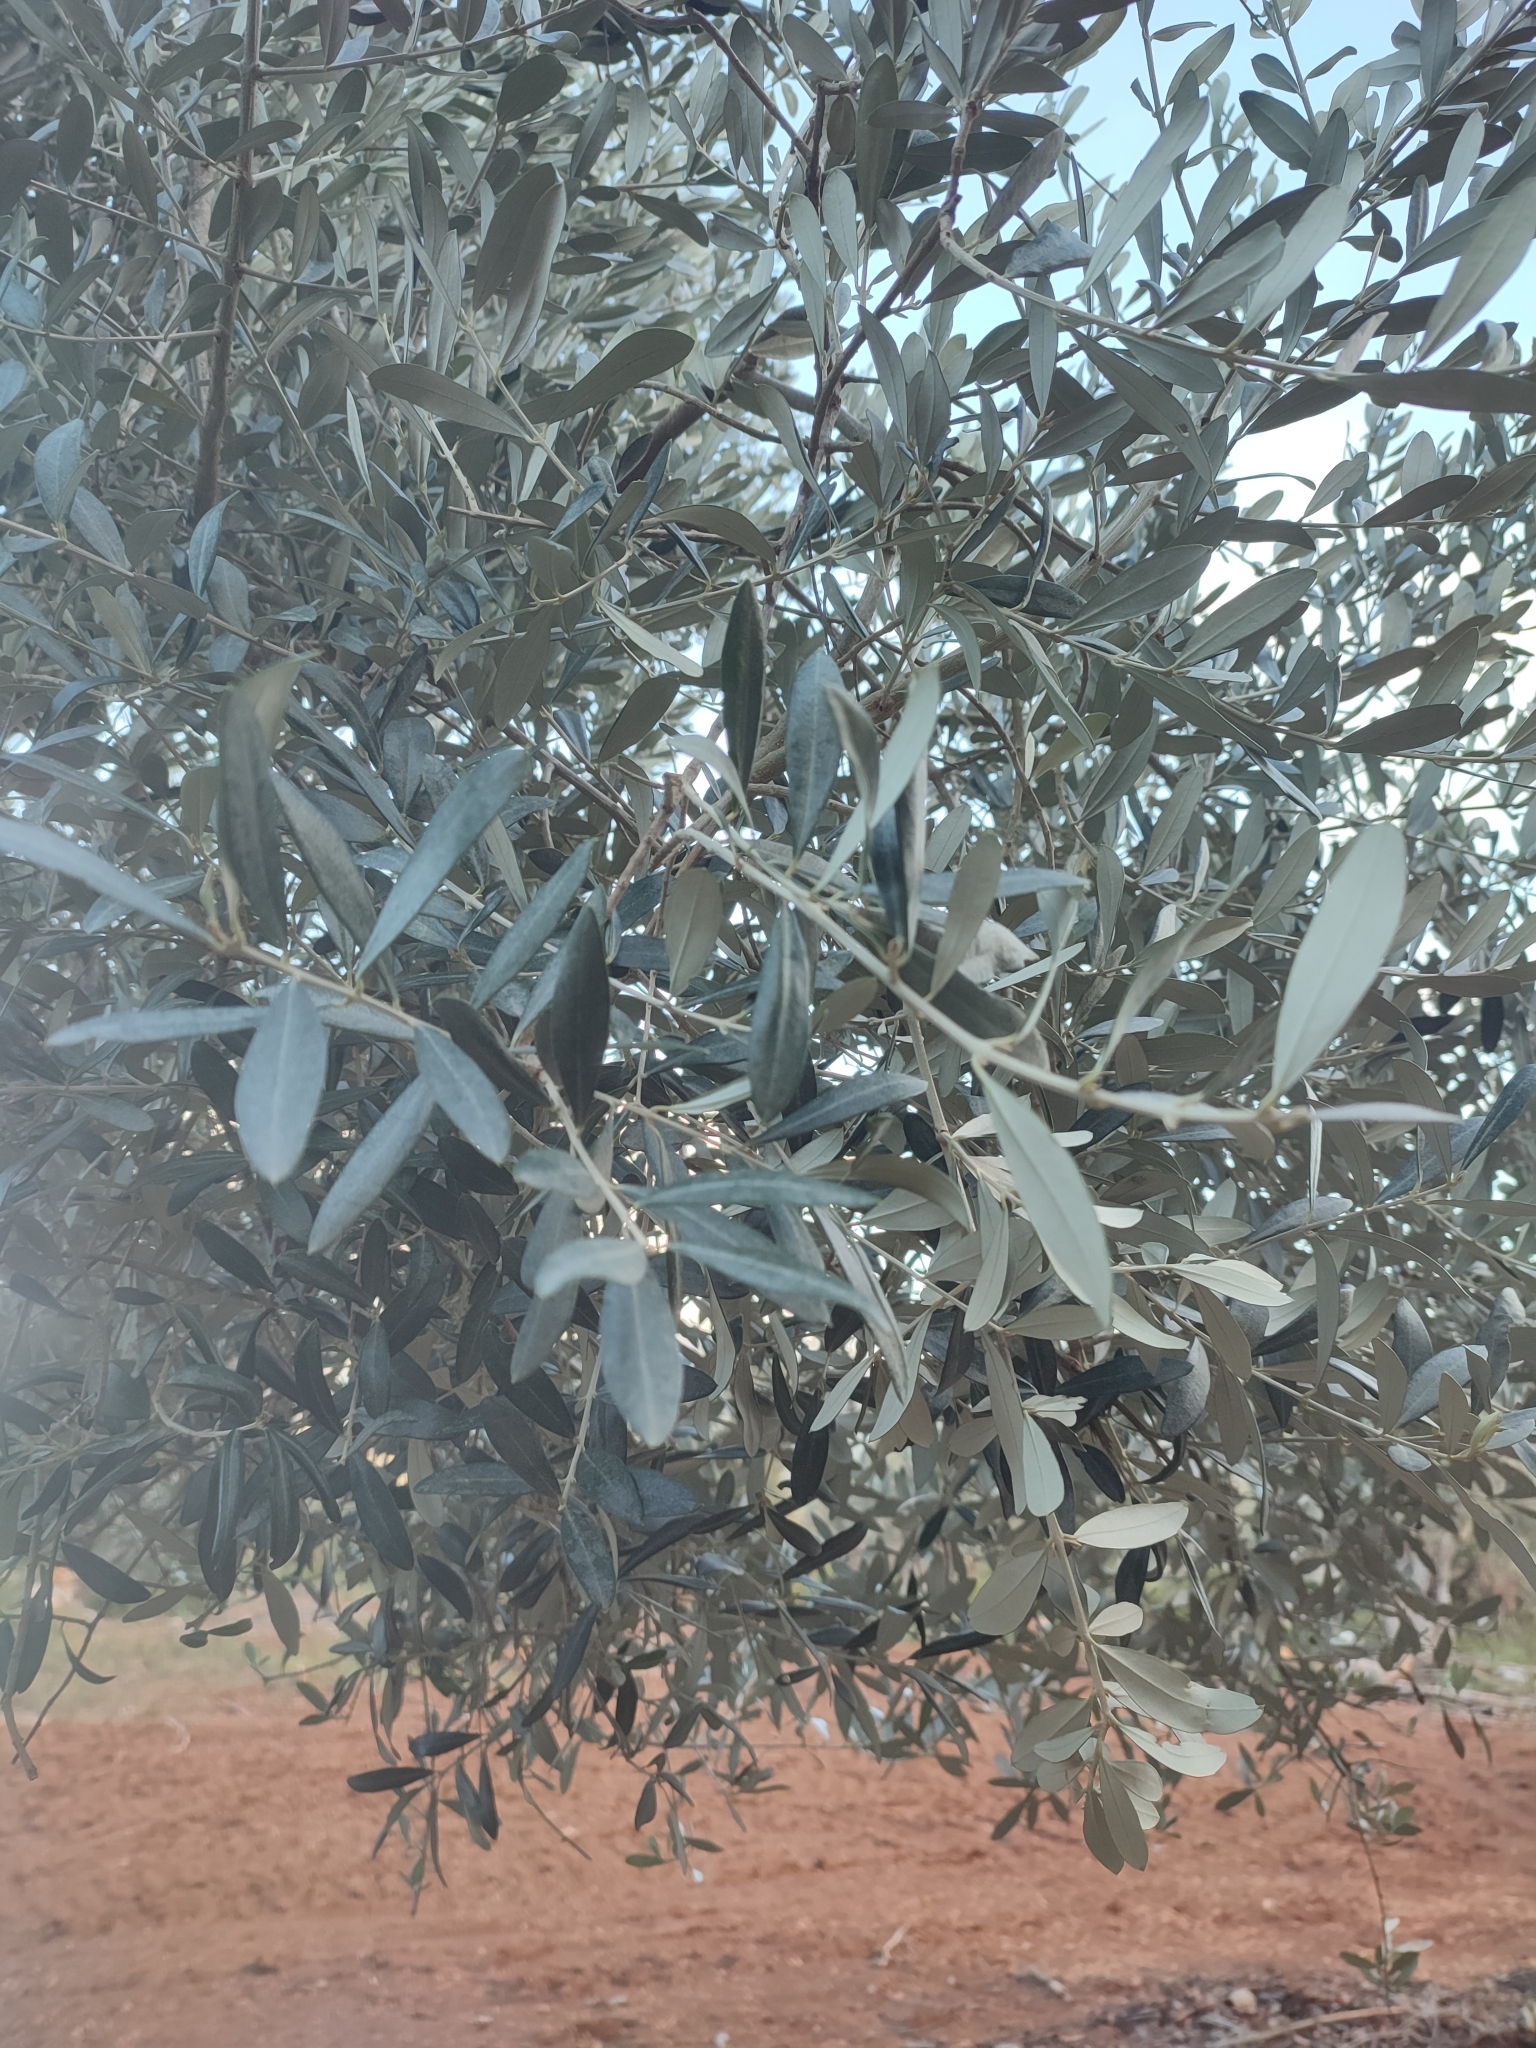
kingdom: Plantae
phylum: Tracheophyta
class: Magnoliopsida
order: Lamiales
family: Oleaceae
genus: Olea
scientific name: Olea europaea
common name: Olive
